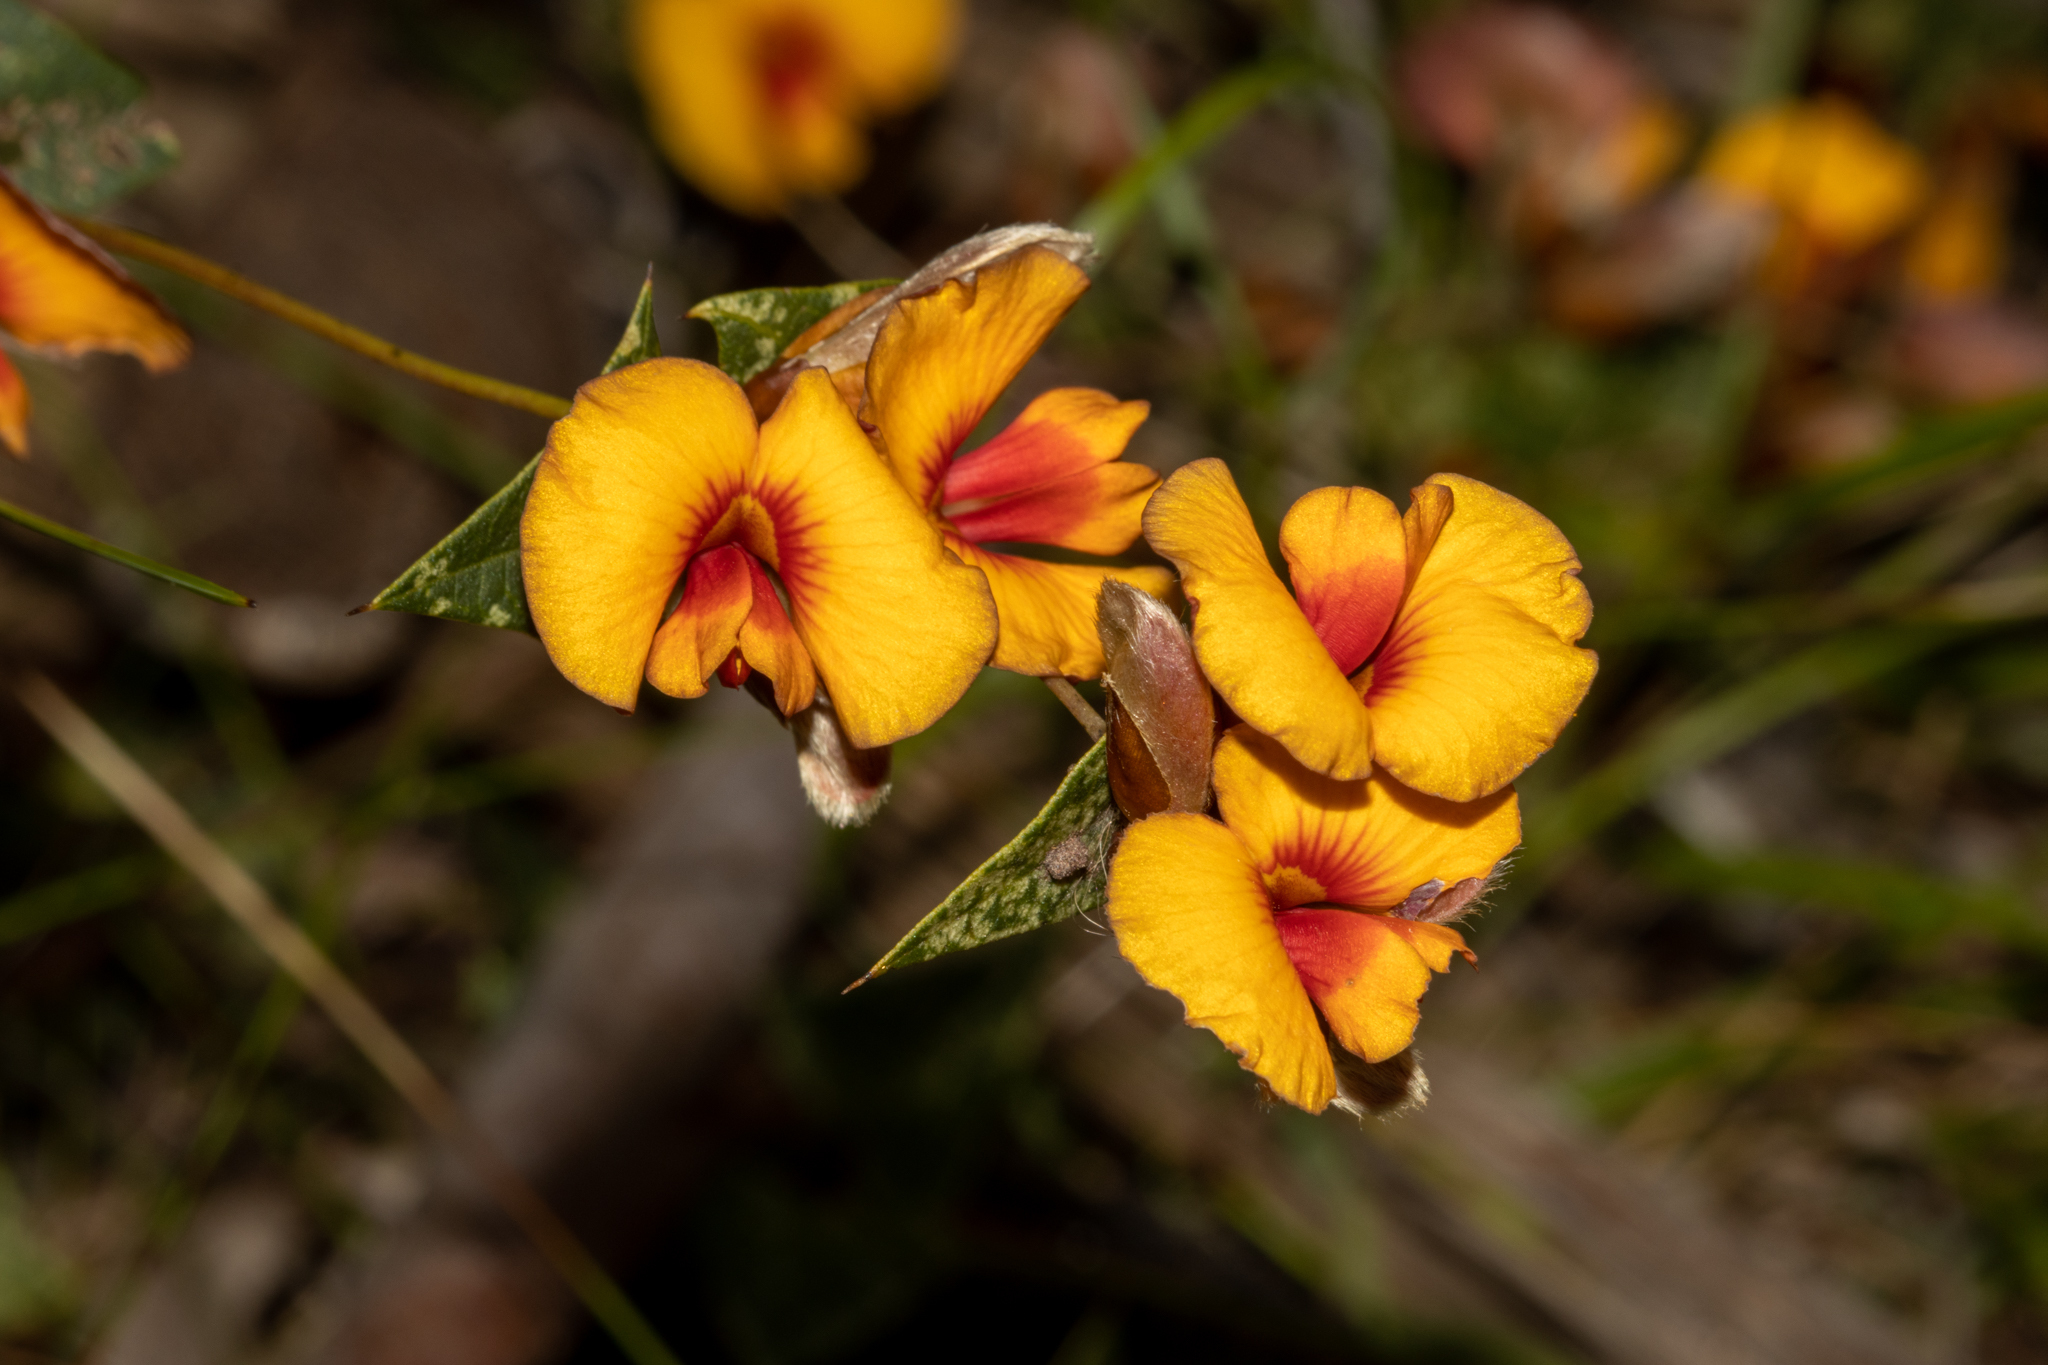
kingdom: Plantae
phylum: Tracheophyta
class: Magnoliopsida
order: Fabales
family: Fabaceae
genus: Platylobium
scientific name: Platylobium obtusangulum
